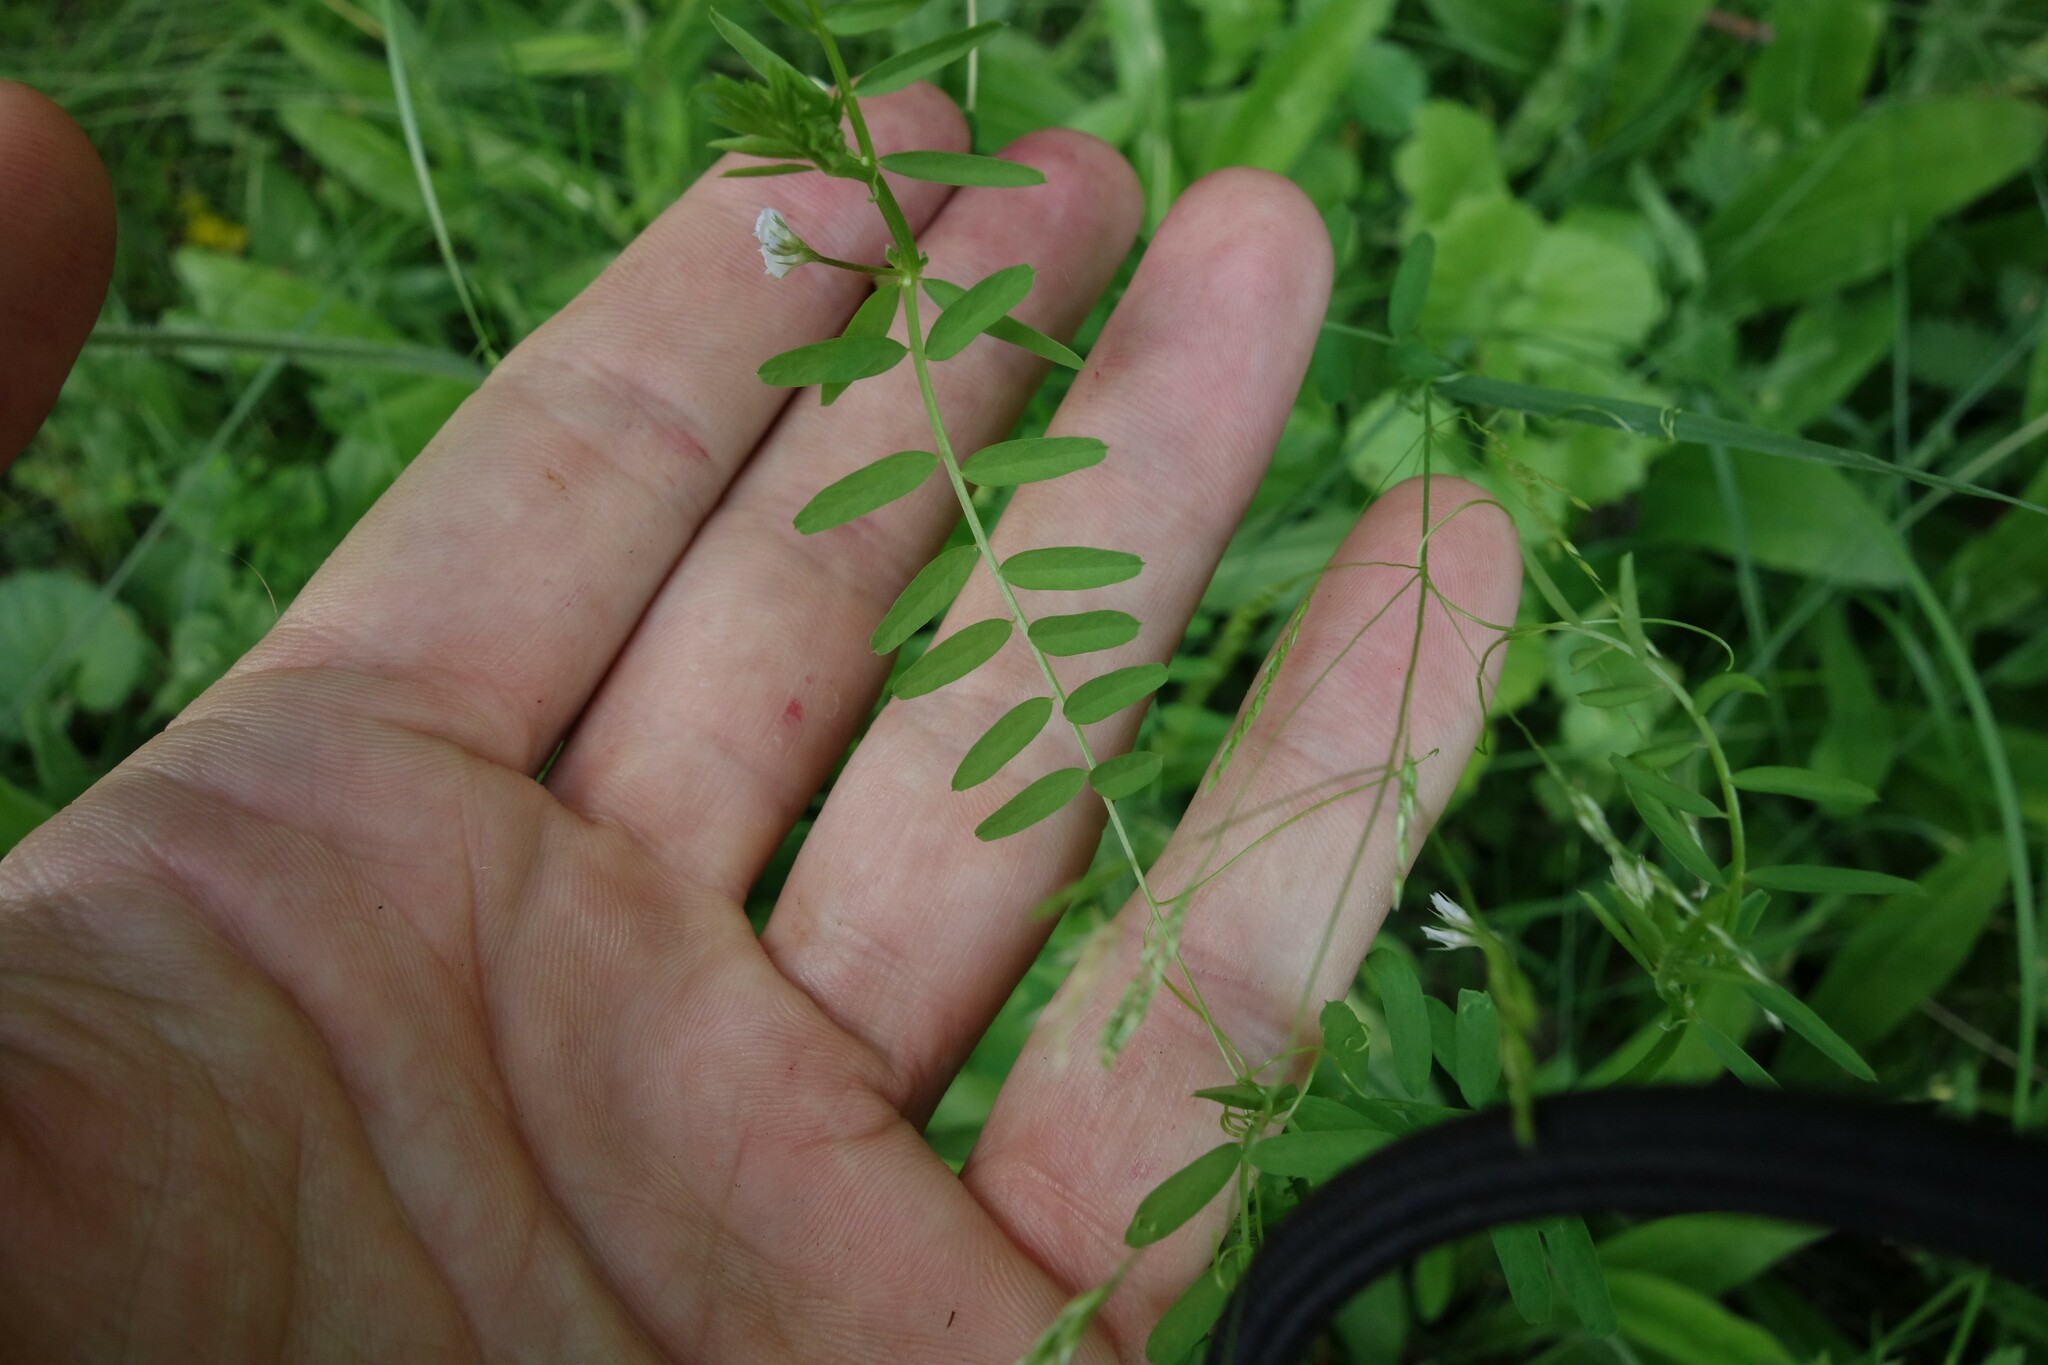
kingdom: Plantae
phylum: Tracheophyta
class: Magnoliopsida
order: Fabales
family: Fabaceae
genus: Vicia
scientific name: Vicia hirsuta
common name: Tiny vetch
